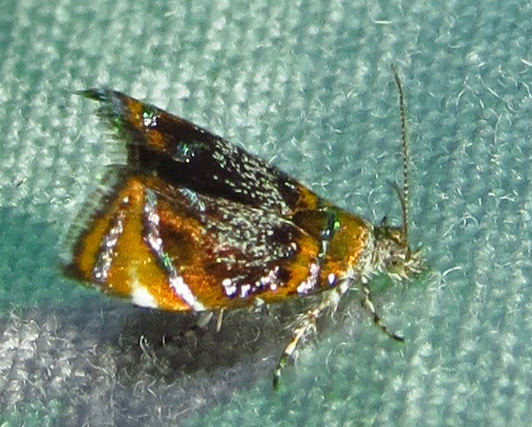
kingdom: Animalia
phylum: Arthropoda
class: Insecta
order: Lepidoptera
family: Choreutidae
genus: Prochoreutis
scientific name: Prochoreutis inflatella
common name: Skullcap skeletonizer moth
